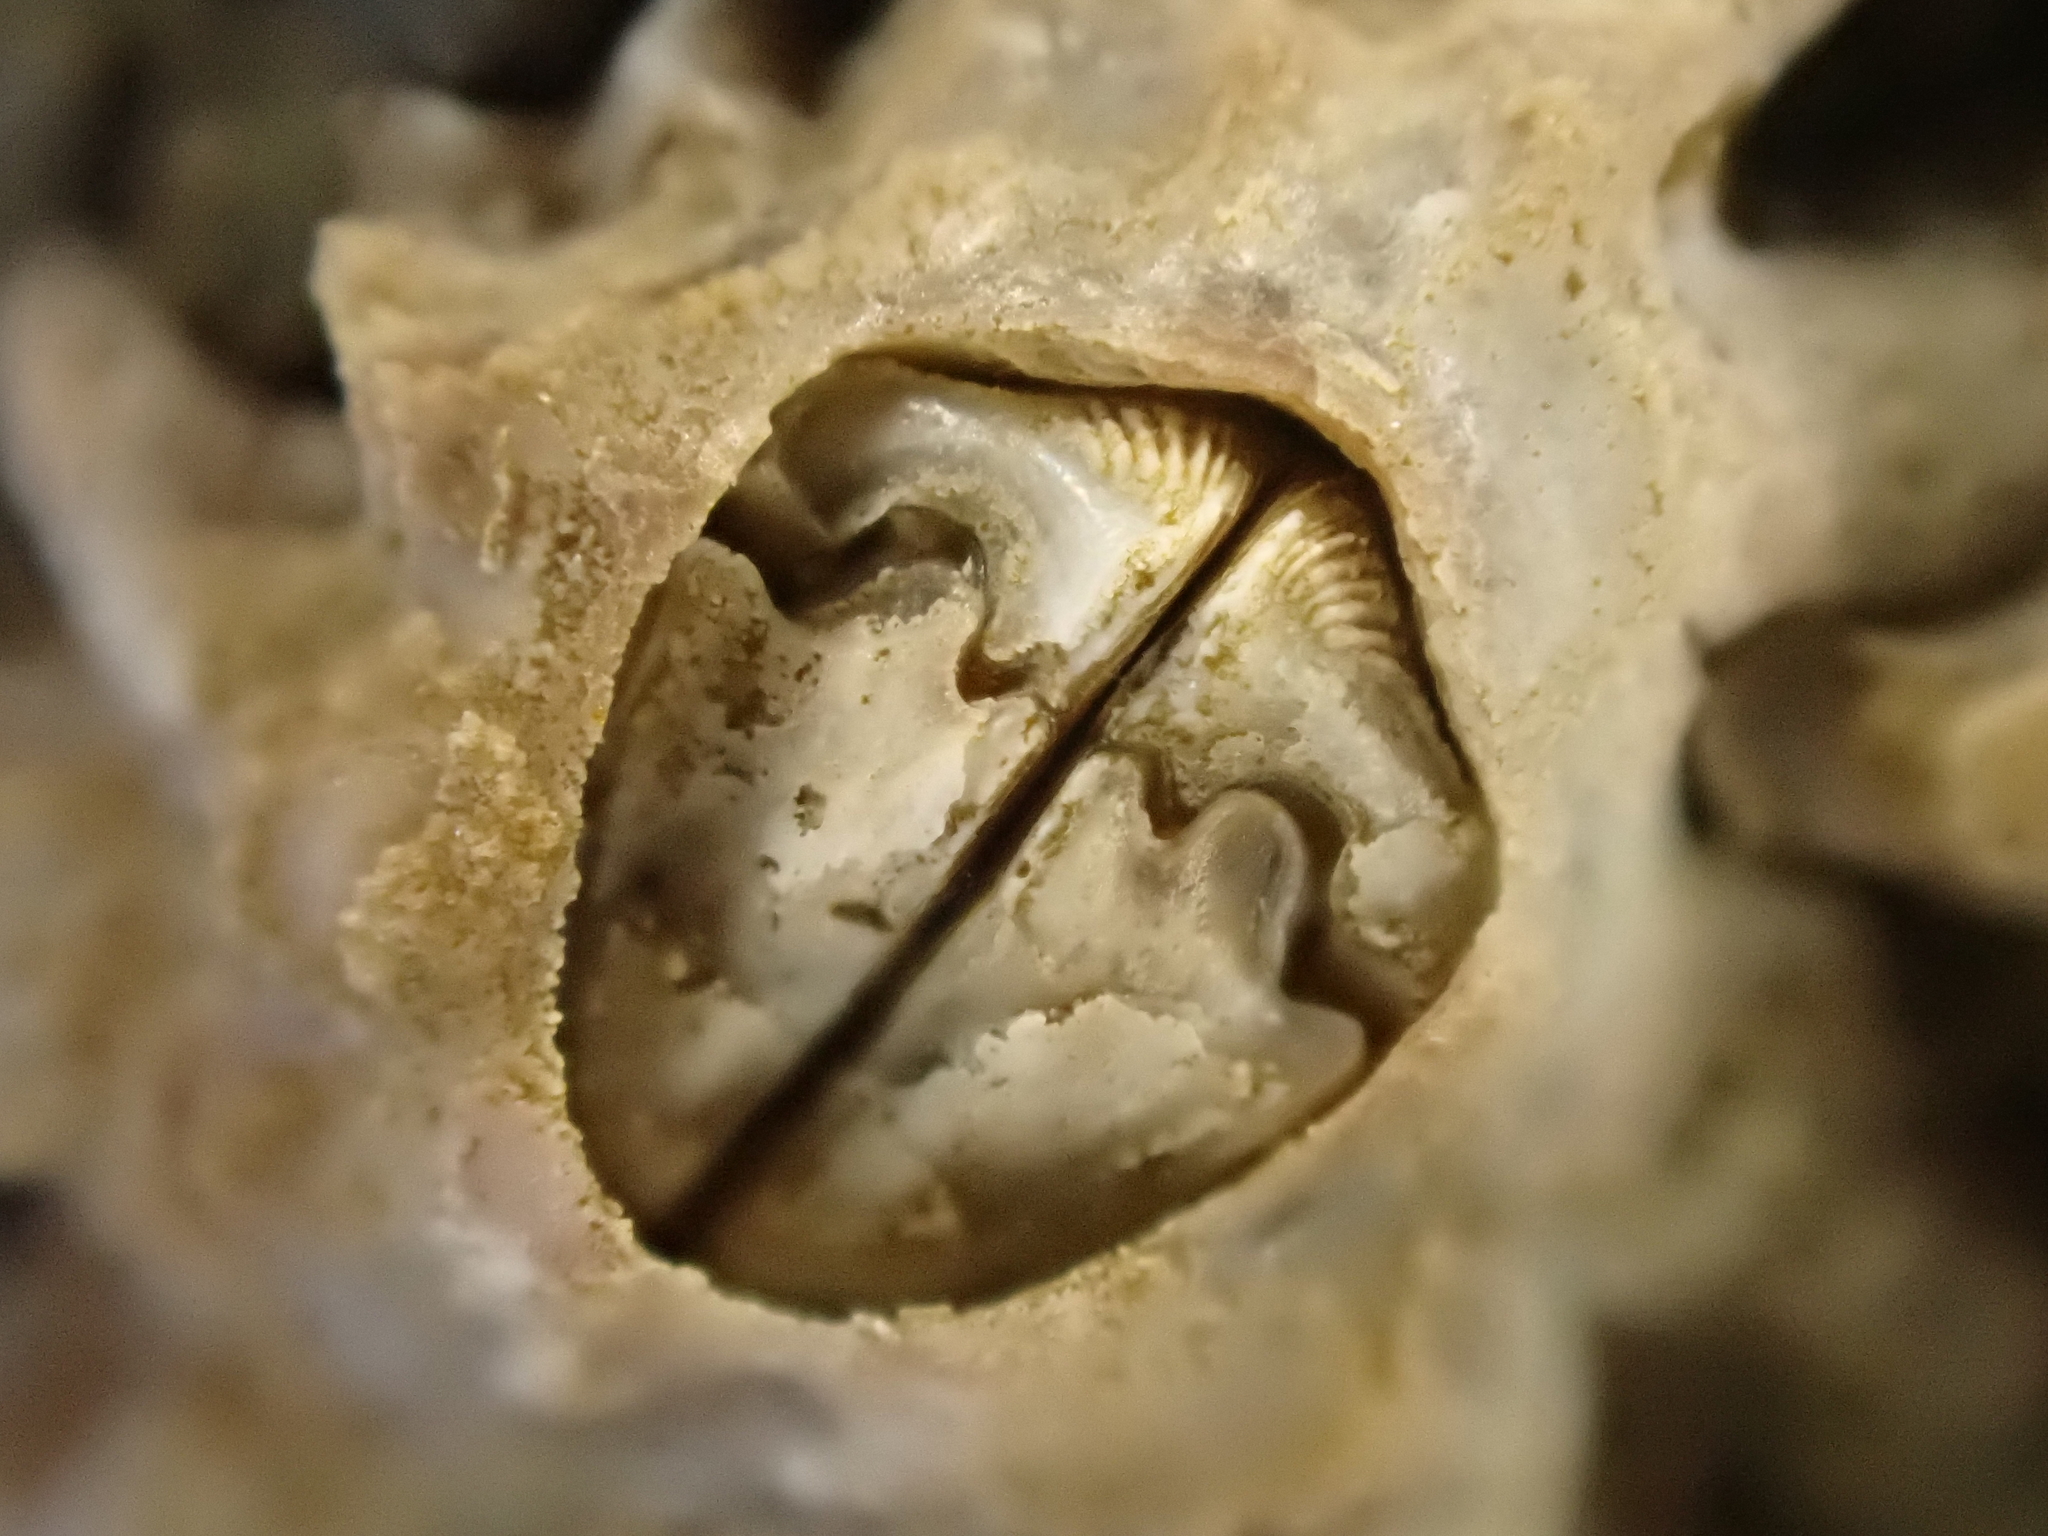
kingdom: Animalia
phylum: Arthropoda
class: Maxillopoda
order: Sessilia
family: Chthamalidae
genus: Chamaesipho
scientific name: Chamaesipho brunnea
